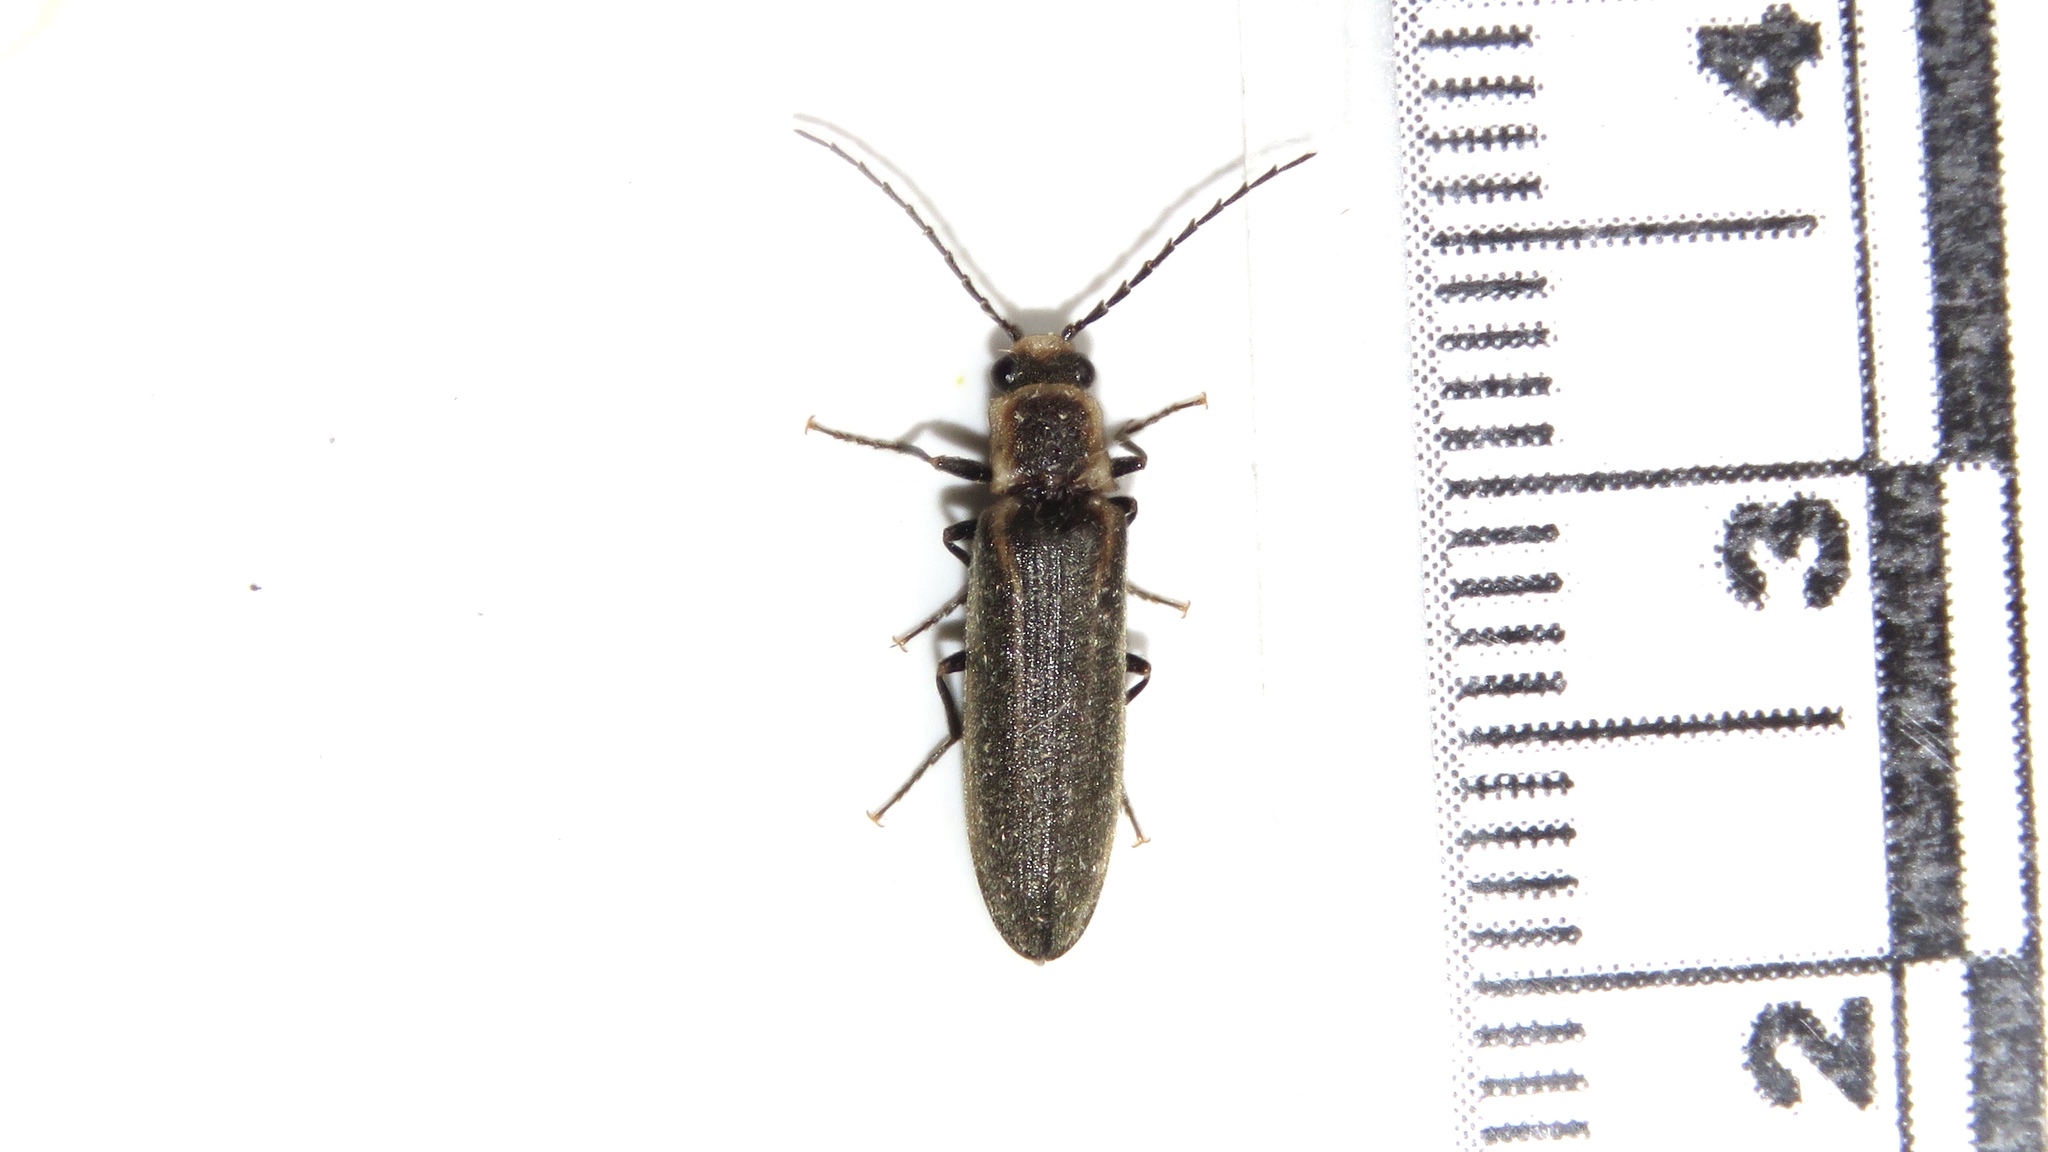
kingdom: Animalia
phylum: Arthropoda
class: Insecta
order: Coleoptera
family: Elateridae
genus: Denticollis
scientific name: Denticollis denticornis
